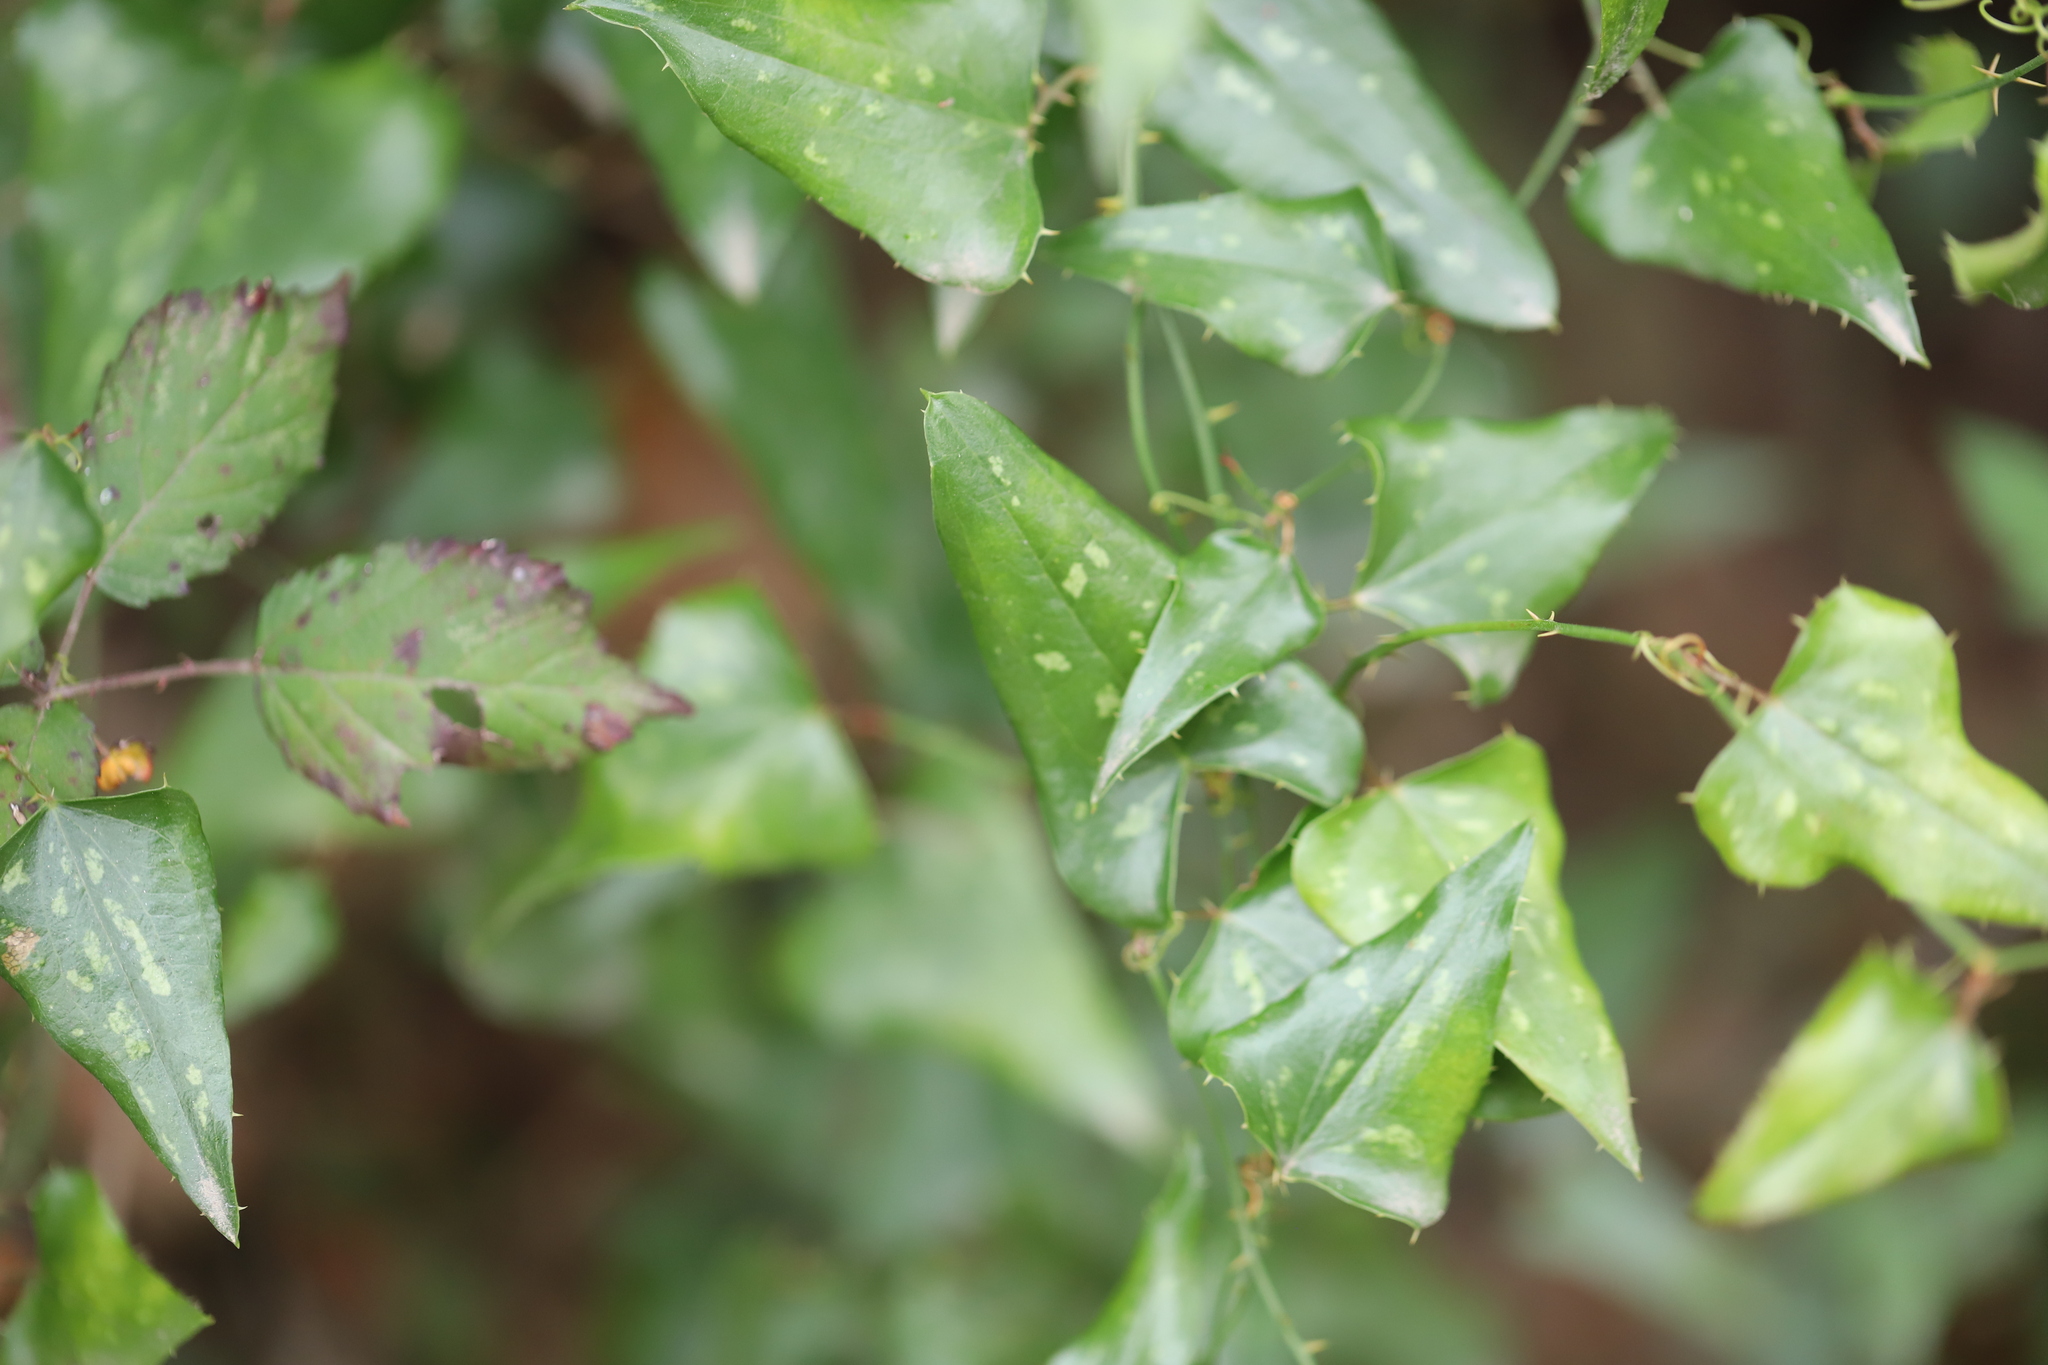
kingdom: Plantae
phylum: Tracheophyta
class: Liliopsida
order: Liliales
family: Smilacaceae
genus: Smilax
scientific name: Smilax aspera
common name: Common smilax
